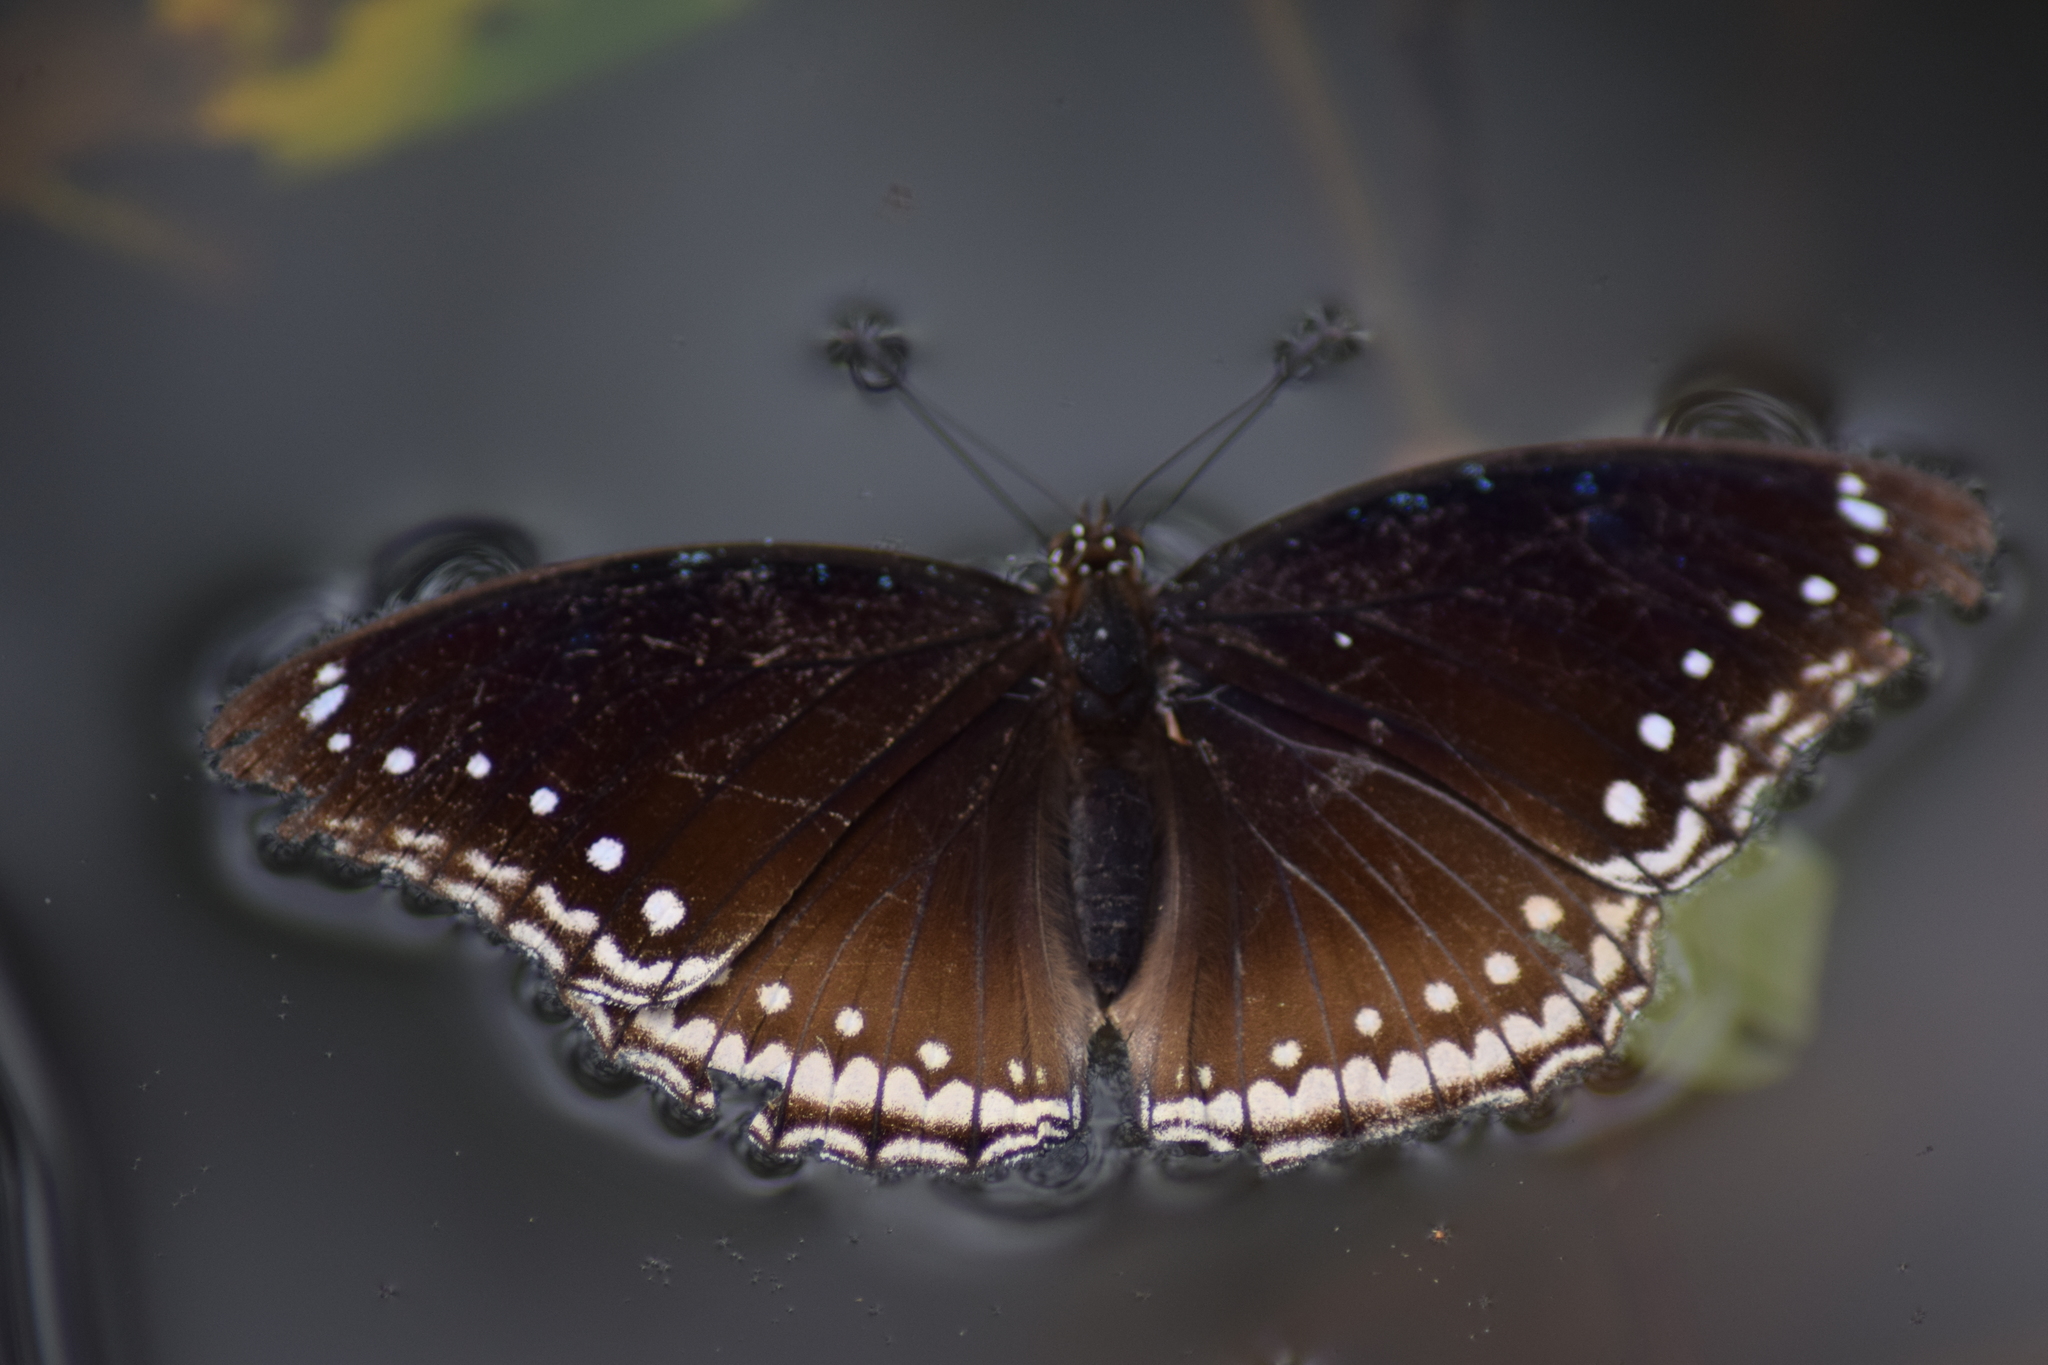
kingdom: Animalia
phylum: Arthropoda
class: Insecta
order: Lepidoptera
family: Nymphalidae
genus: Hypolimnas
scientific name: Hypolimnas bolina
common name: Great eggfly
